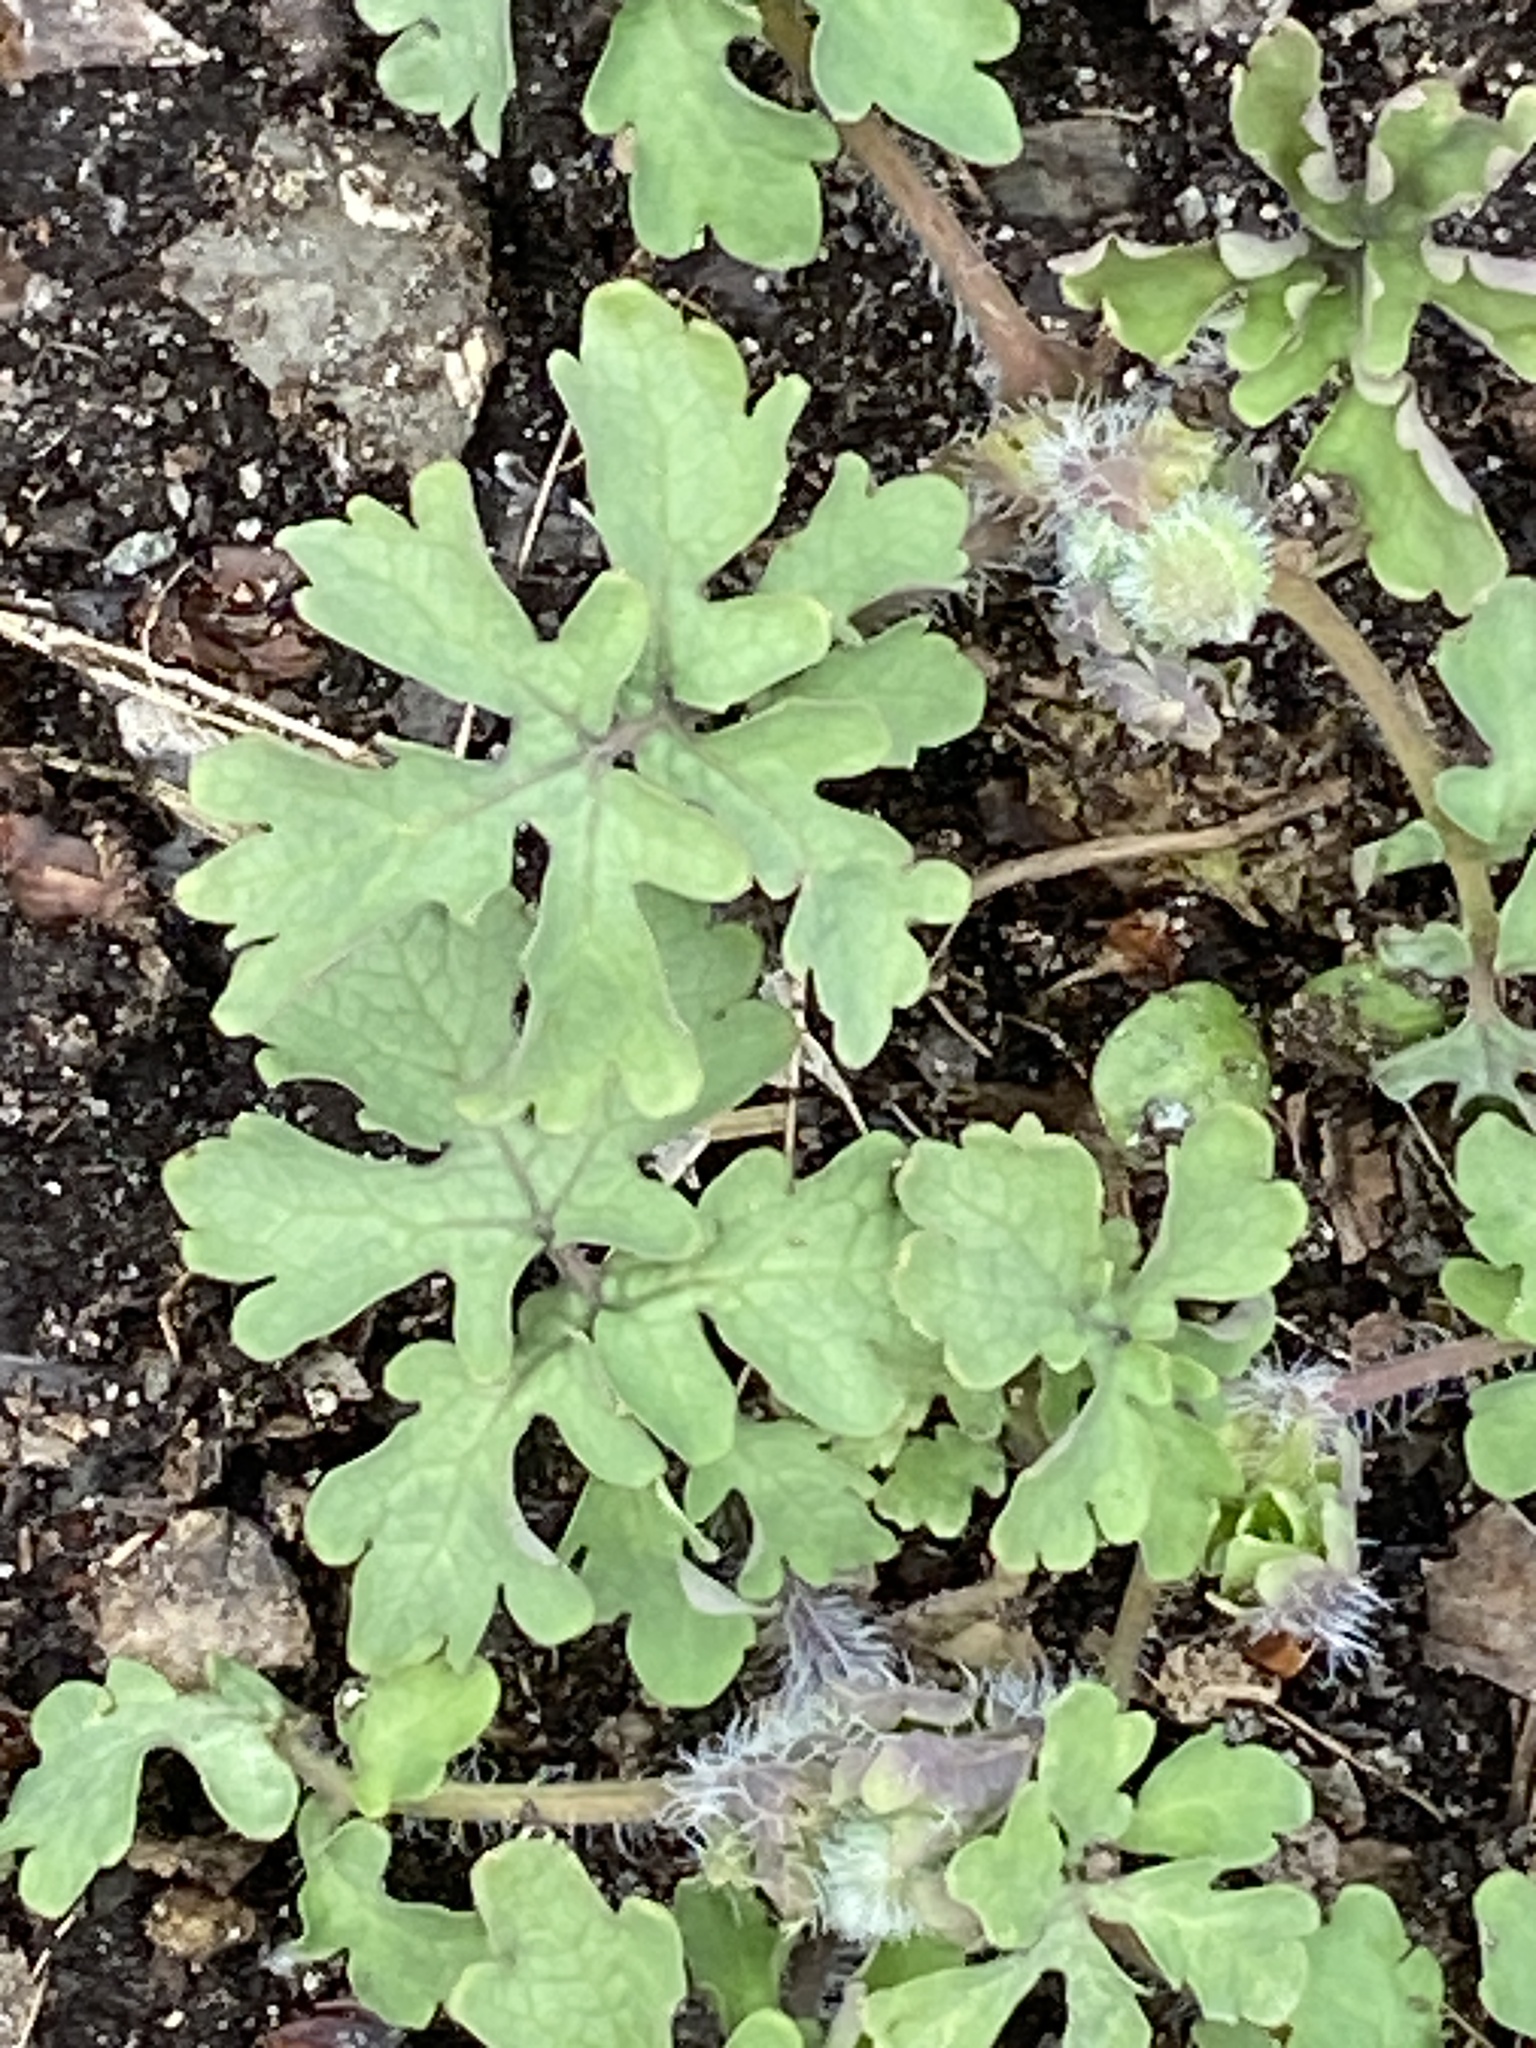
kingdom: Plantae
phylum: Tracheophyta
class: Magnoliopsida
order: Ranunculales
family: Papaveraceae
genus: Stylophorum
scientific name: Stylophorum diphyllum
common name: Celandine poppy
